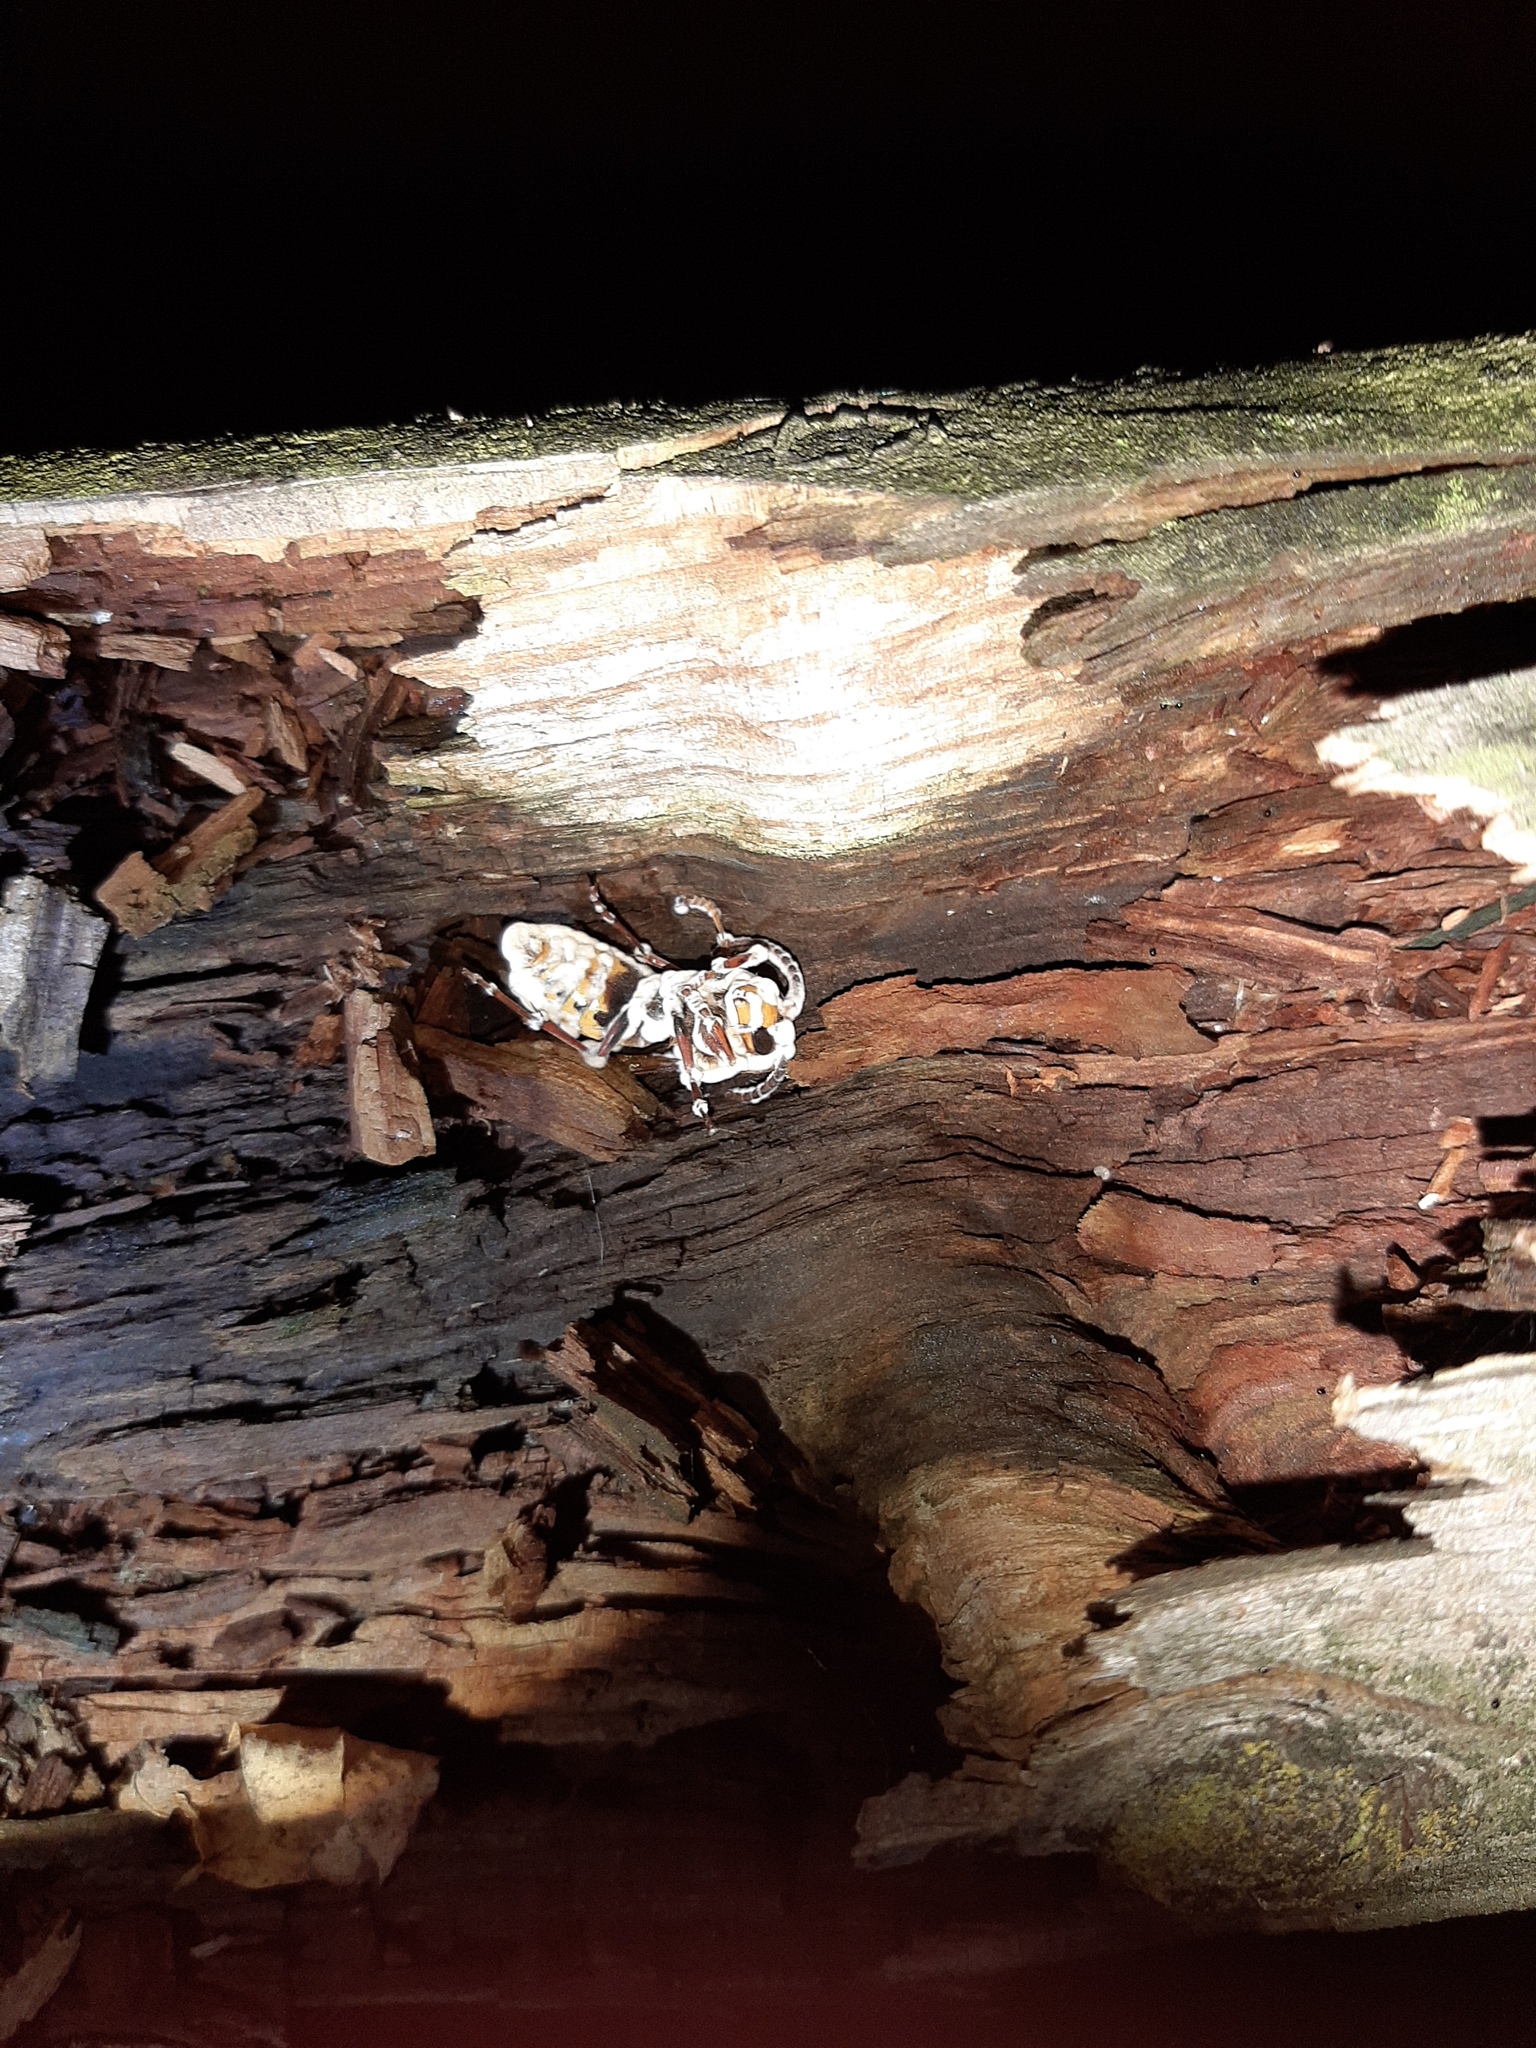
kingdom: Animalia
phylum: Arthropoda
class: Insecta
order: Hymenoptera
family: Vespidae
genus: Vespa
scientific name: Vespa crabro
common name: Hornet
